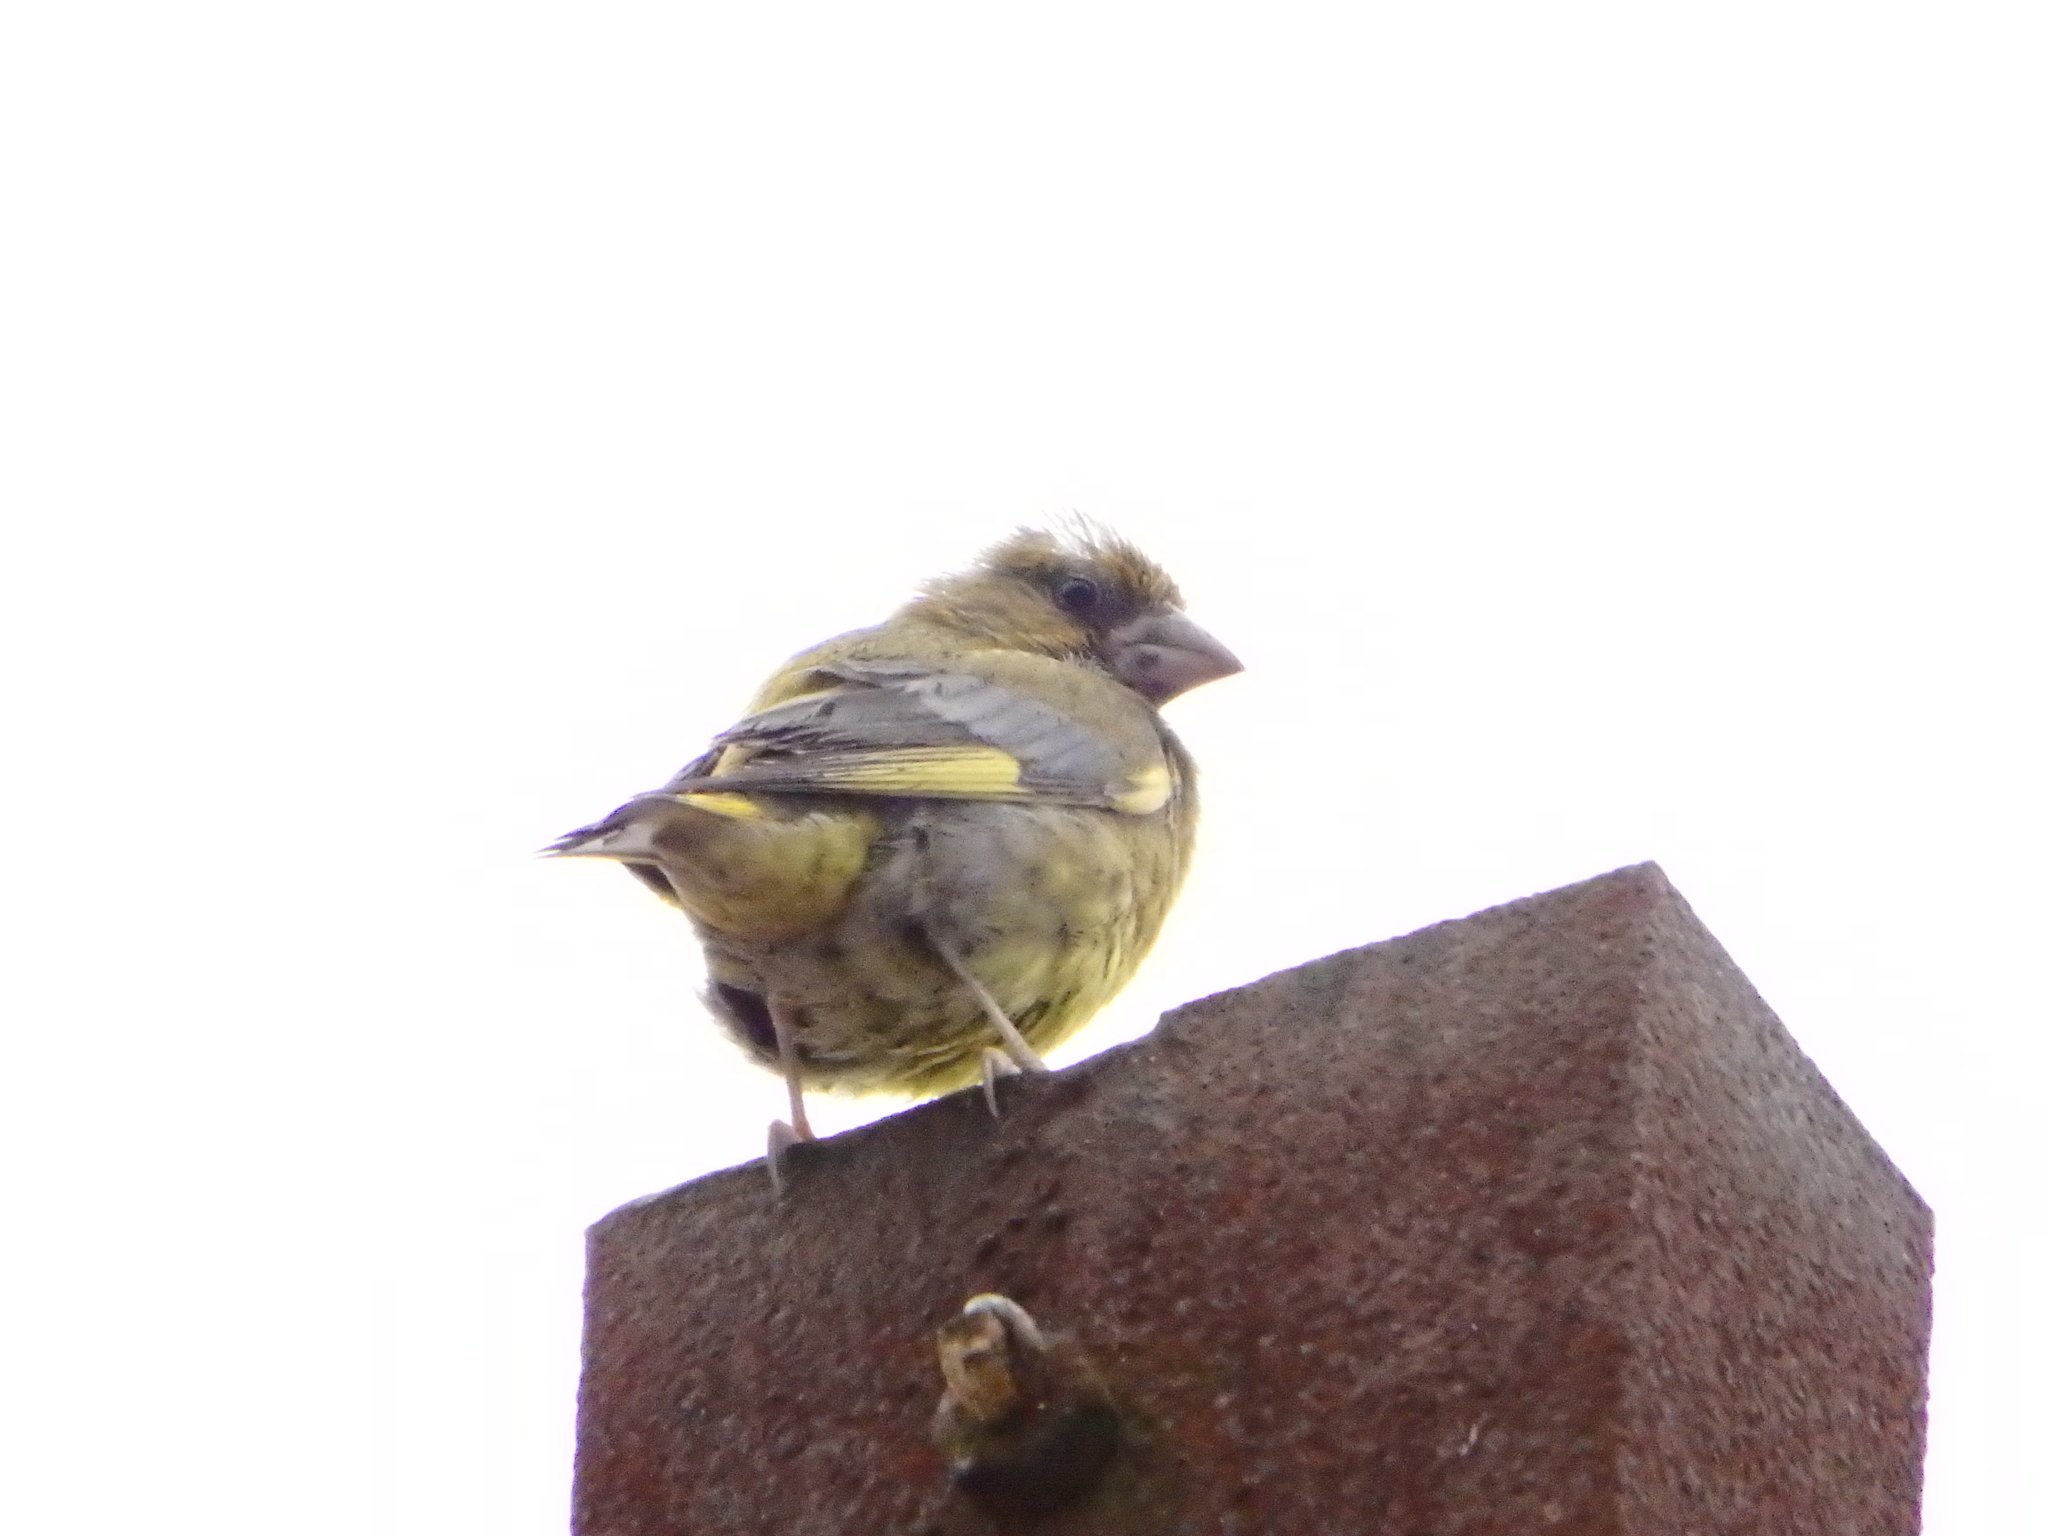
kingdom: Plantae
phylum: Tracheophyta
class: Liliopsida
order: Poales
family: Poaceae
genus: Chloris
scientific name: Chloris chloris
